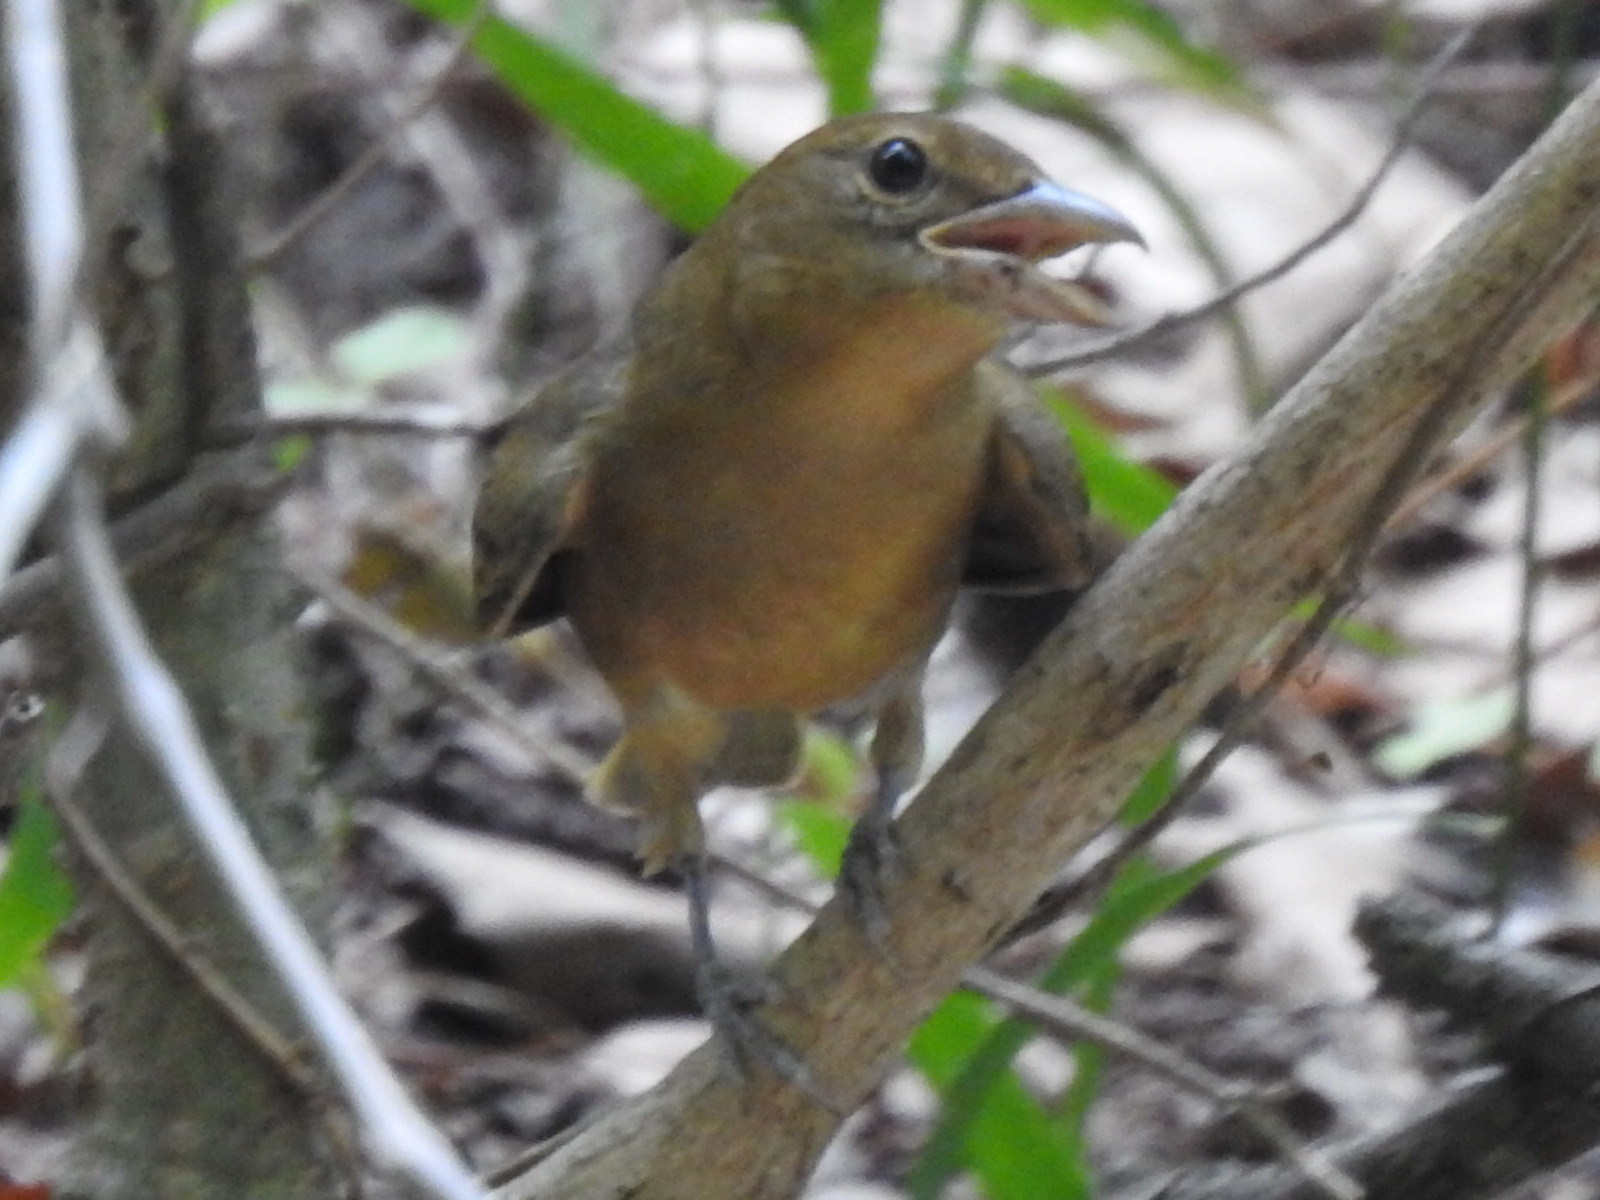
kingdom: Animalia
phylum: Chordata
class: Aves
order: Passeriformes
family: Cardinalidae
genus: Piranga
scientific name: Piranga rubra
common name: Summer tanager
